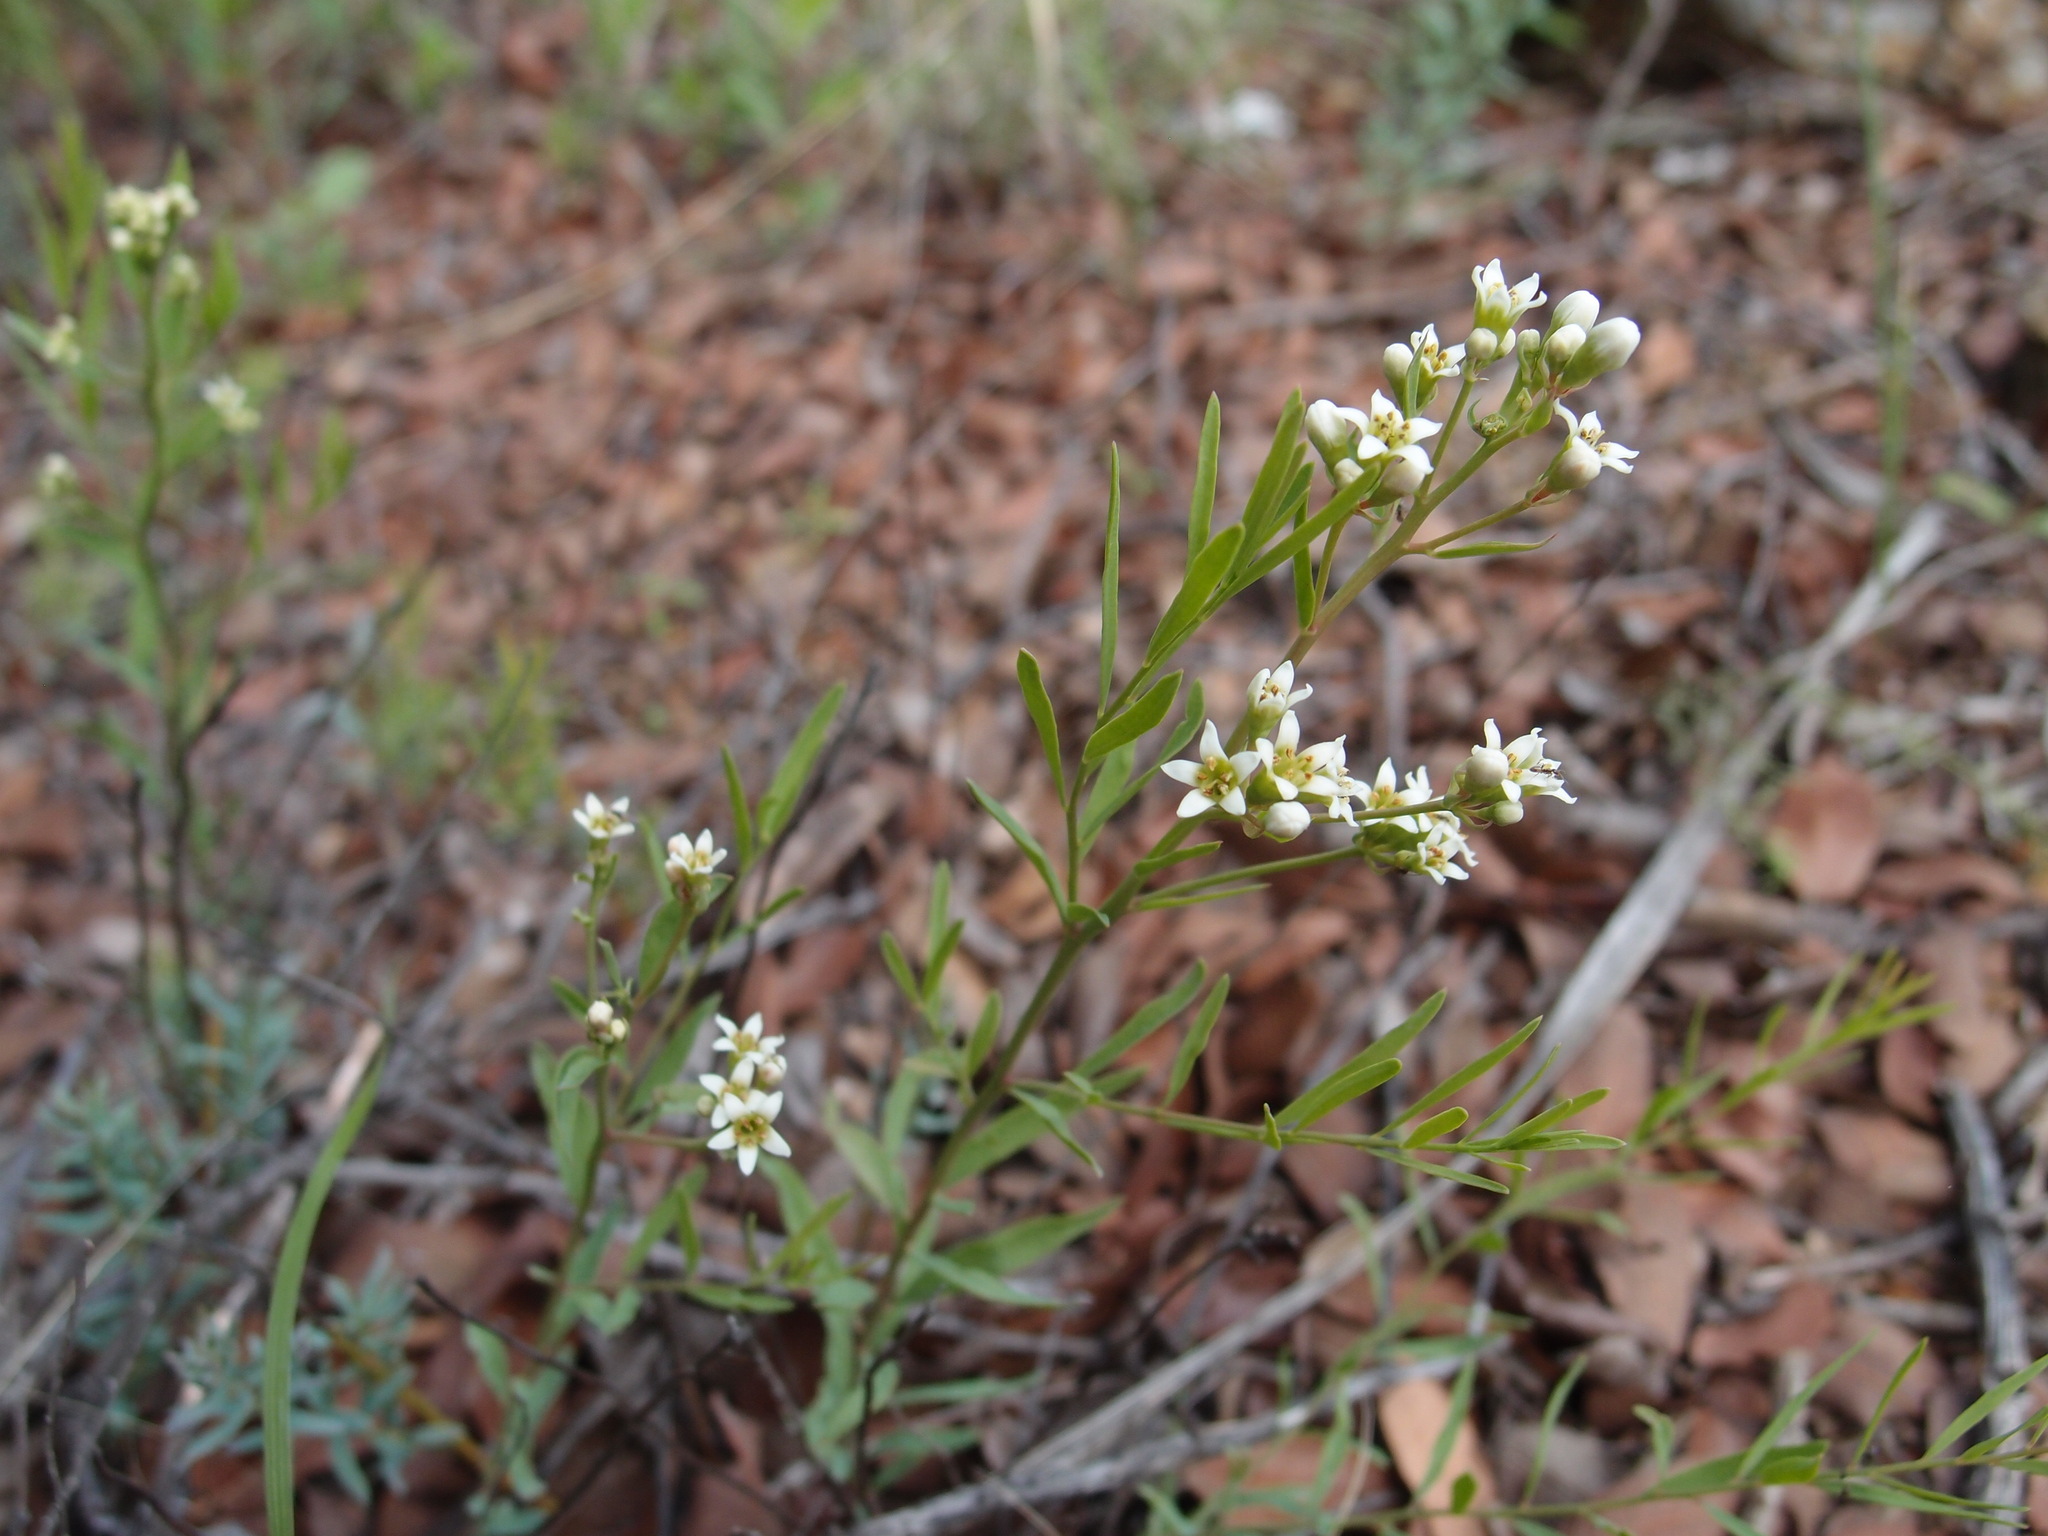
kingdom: Plantae
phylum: Tracheophyta
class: Magnoliopsida
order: Santalales
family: Comandraceae
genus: Comandra
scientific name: Comandra umbellata
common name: Bastard toadflax
